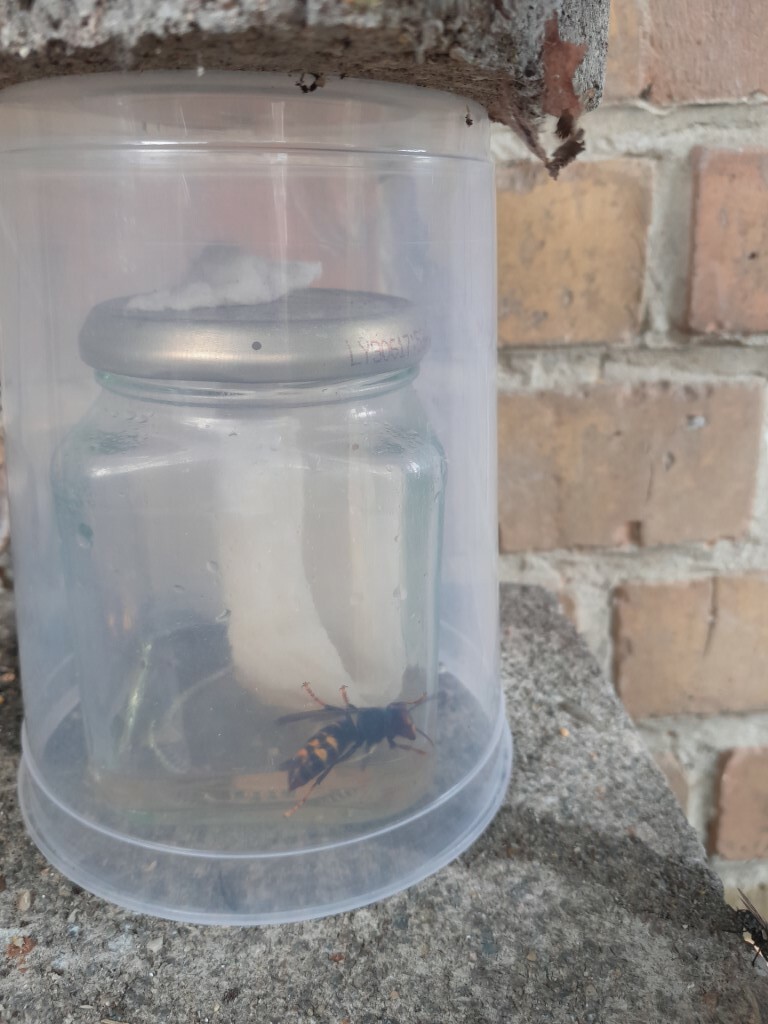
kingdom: Animalia
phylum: Arthropoda
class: Insecta
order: Hymenoptera
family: Vespidae
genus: Vespa
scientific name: Vespa velutina
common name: Asian hornet
